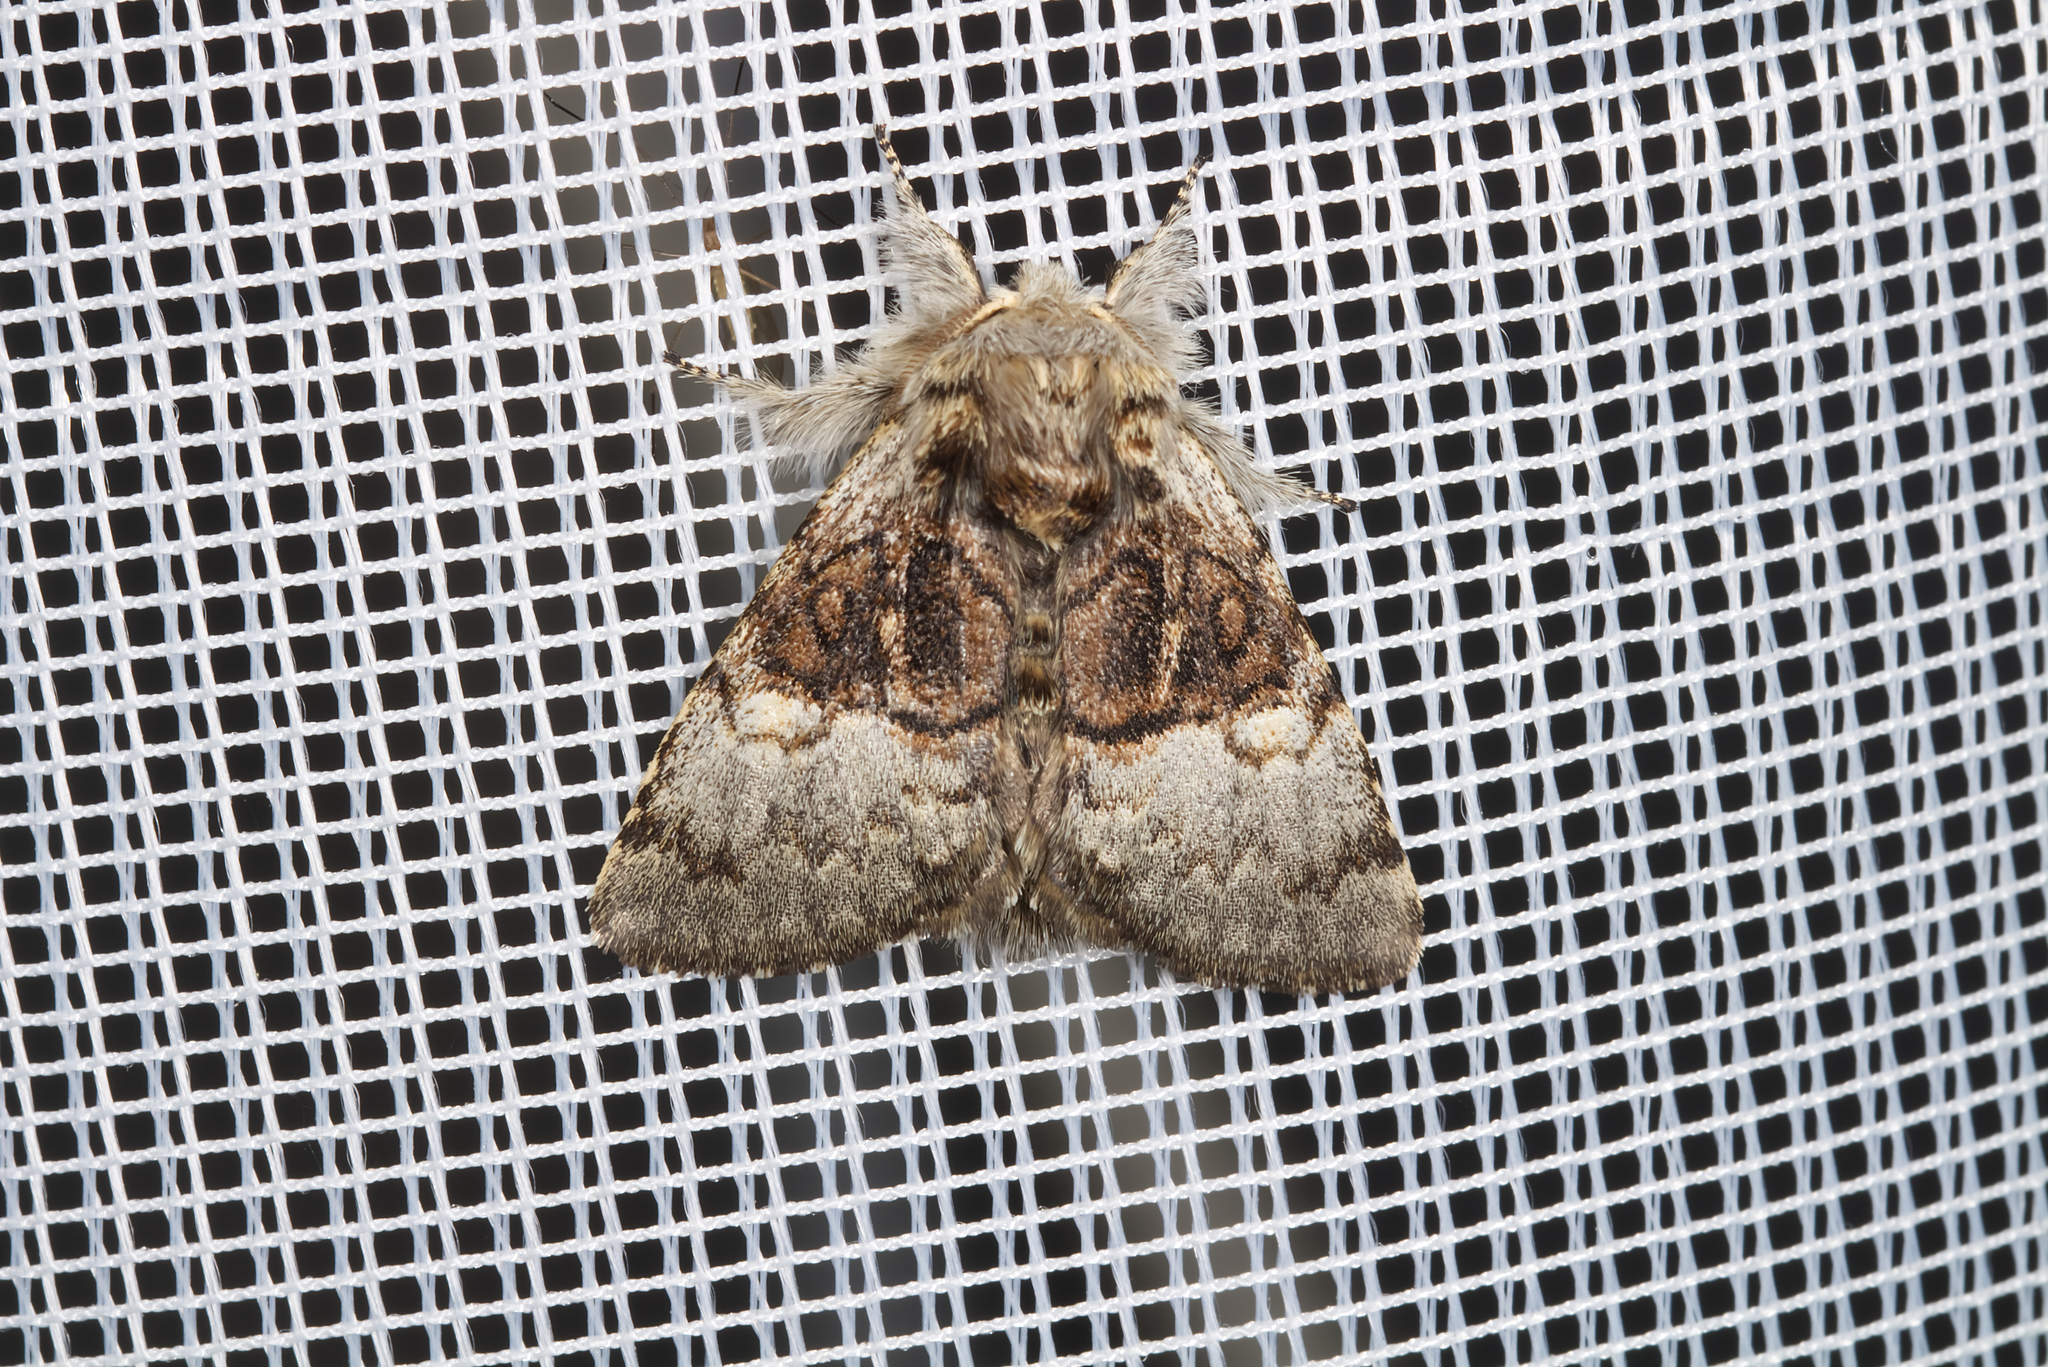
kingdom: Animalia
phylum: Arthropoda
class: Insecta
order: Lepidoptera
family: Noctuidae
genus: Colocasia
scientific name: Colocasia coryli
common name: Nut-tree tussock
